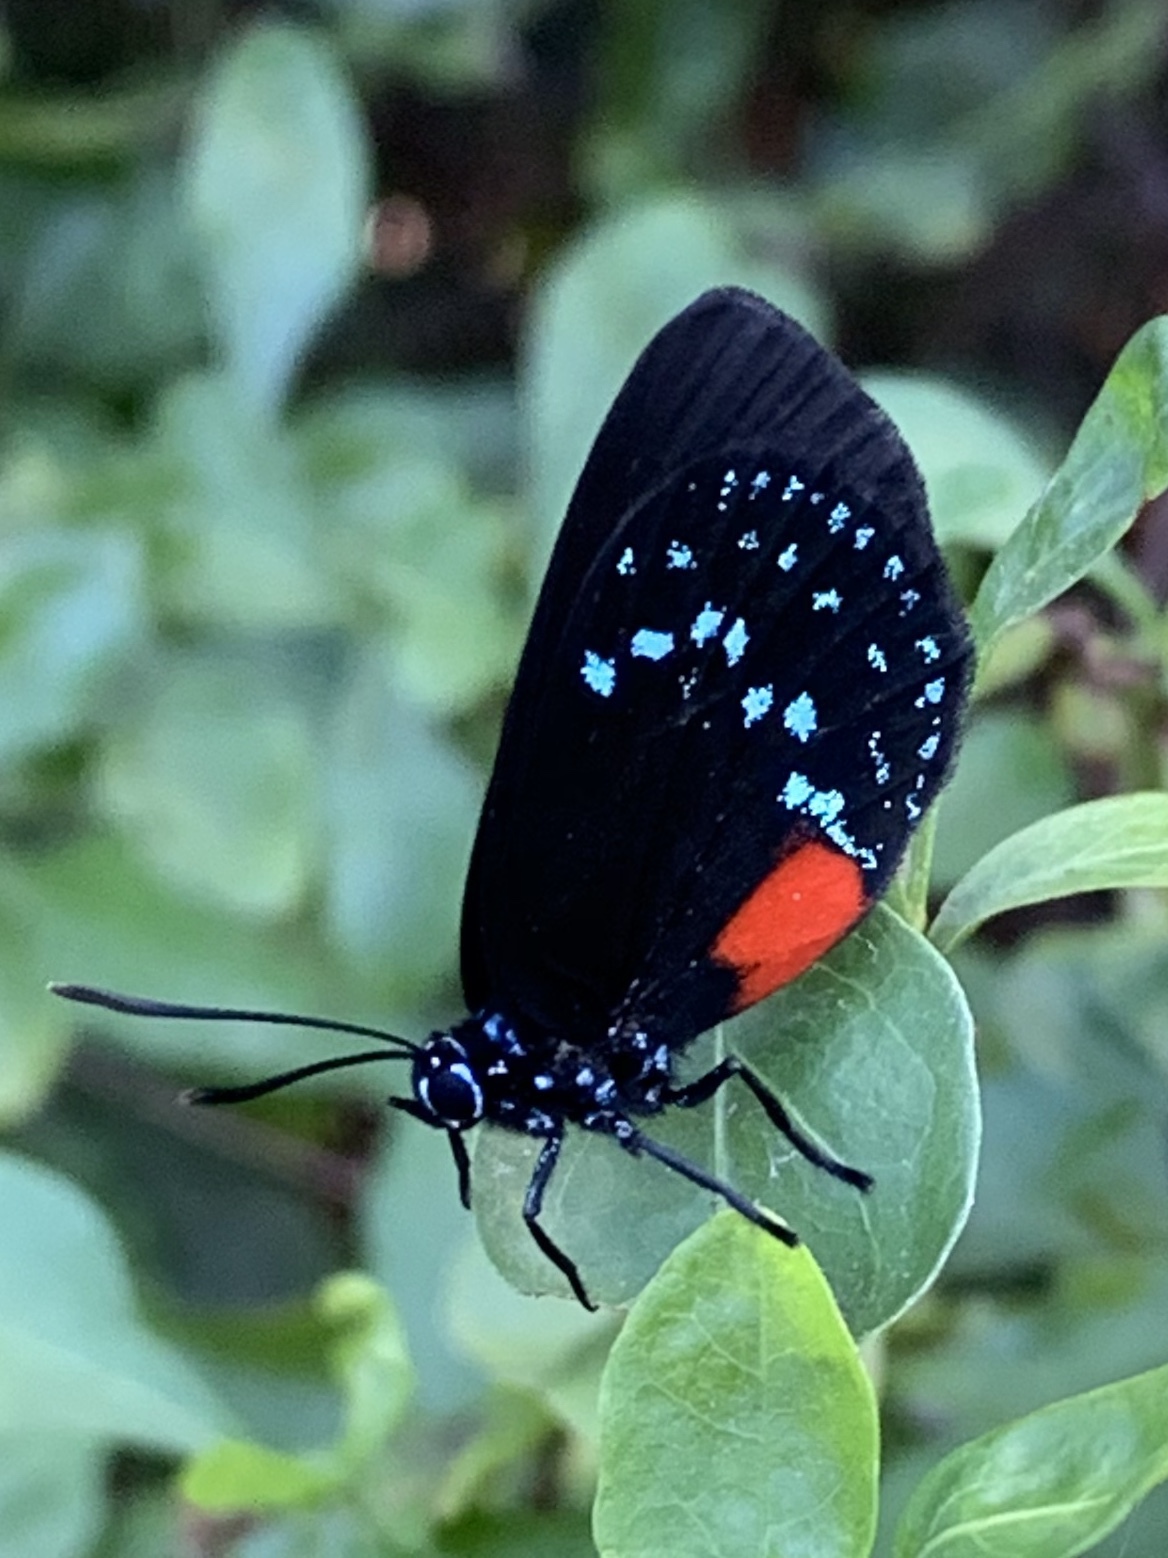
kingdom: Animalia
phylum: Arthropoda
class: Insecta
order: Lepidoptera
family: Lycaenidae
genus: Eumaeus
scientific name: Eumaeus atala
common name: Atala
